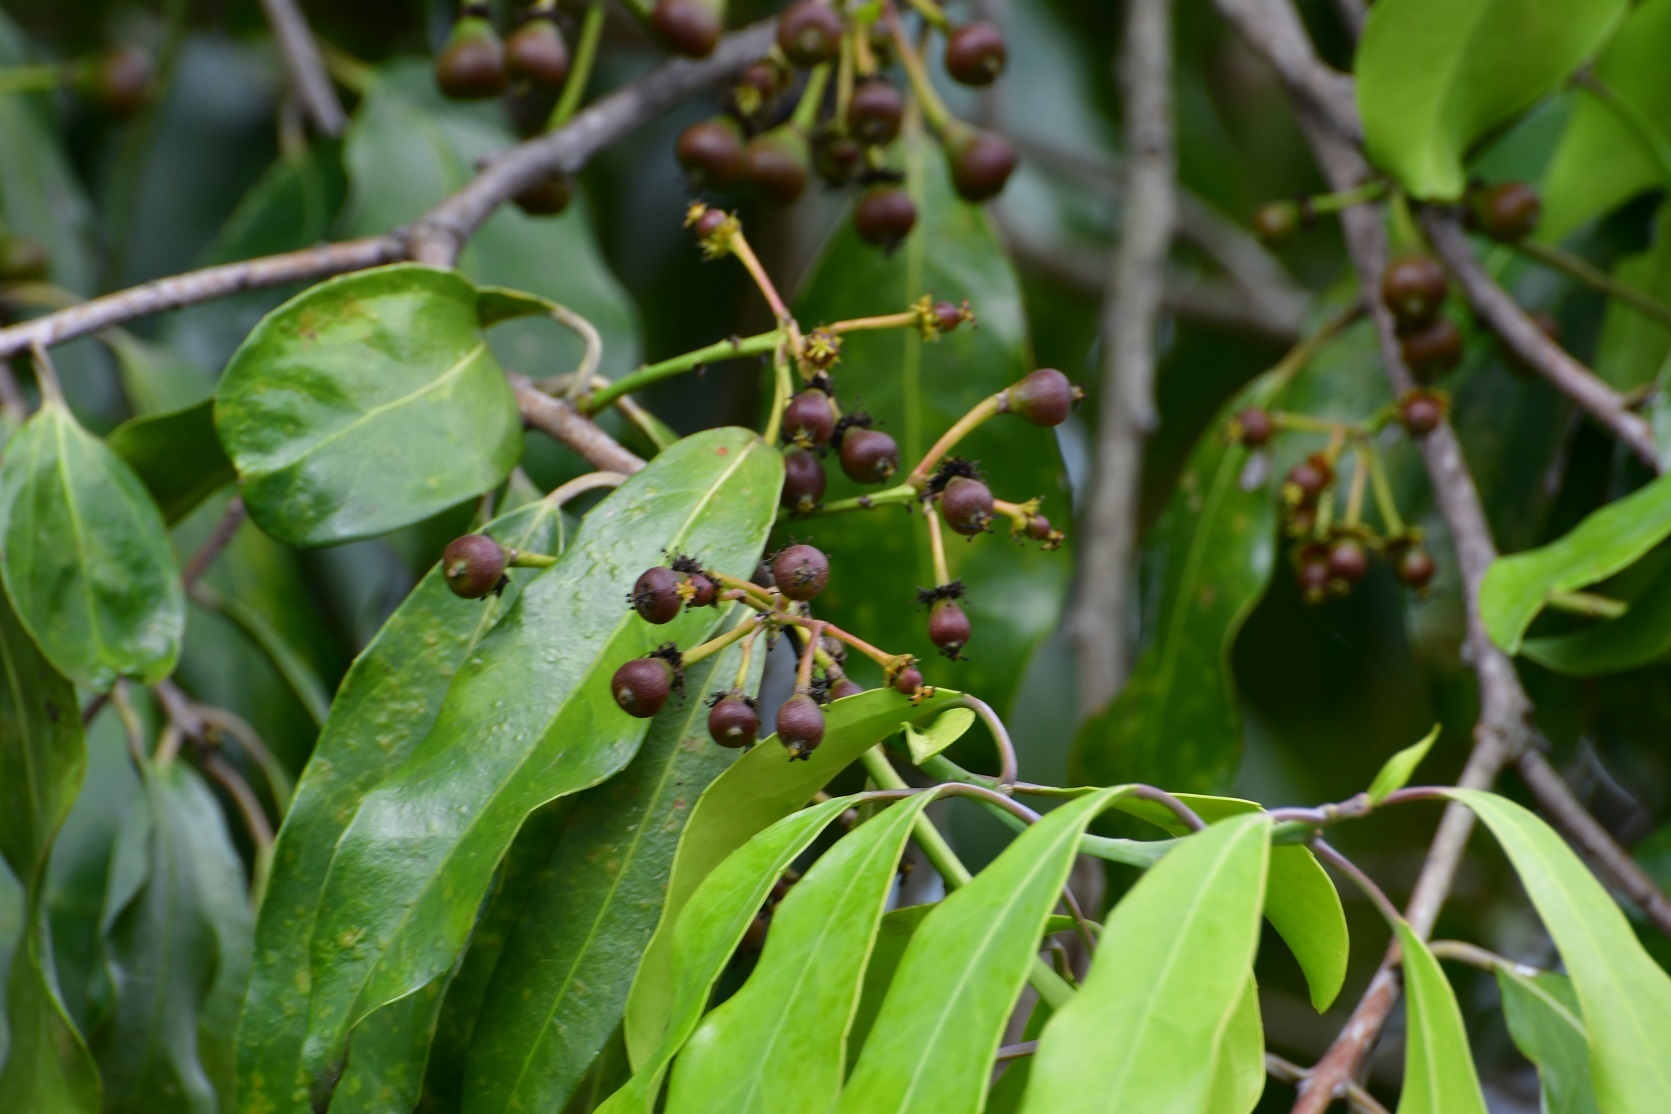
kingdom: Plantae
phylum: Tracheophyta
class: Magnoliopsida
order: Malpighiales
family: Salicaceae
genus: Olmediella
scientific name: Olmediella betschleriana
